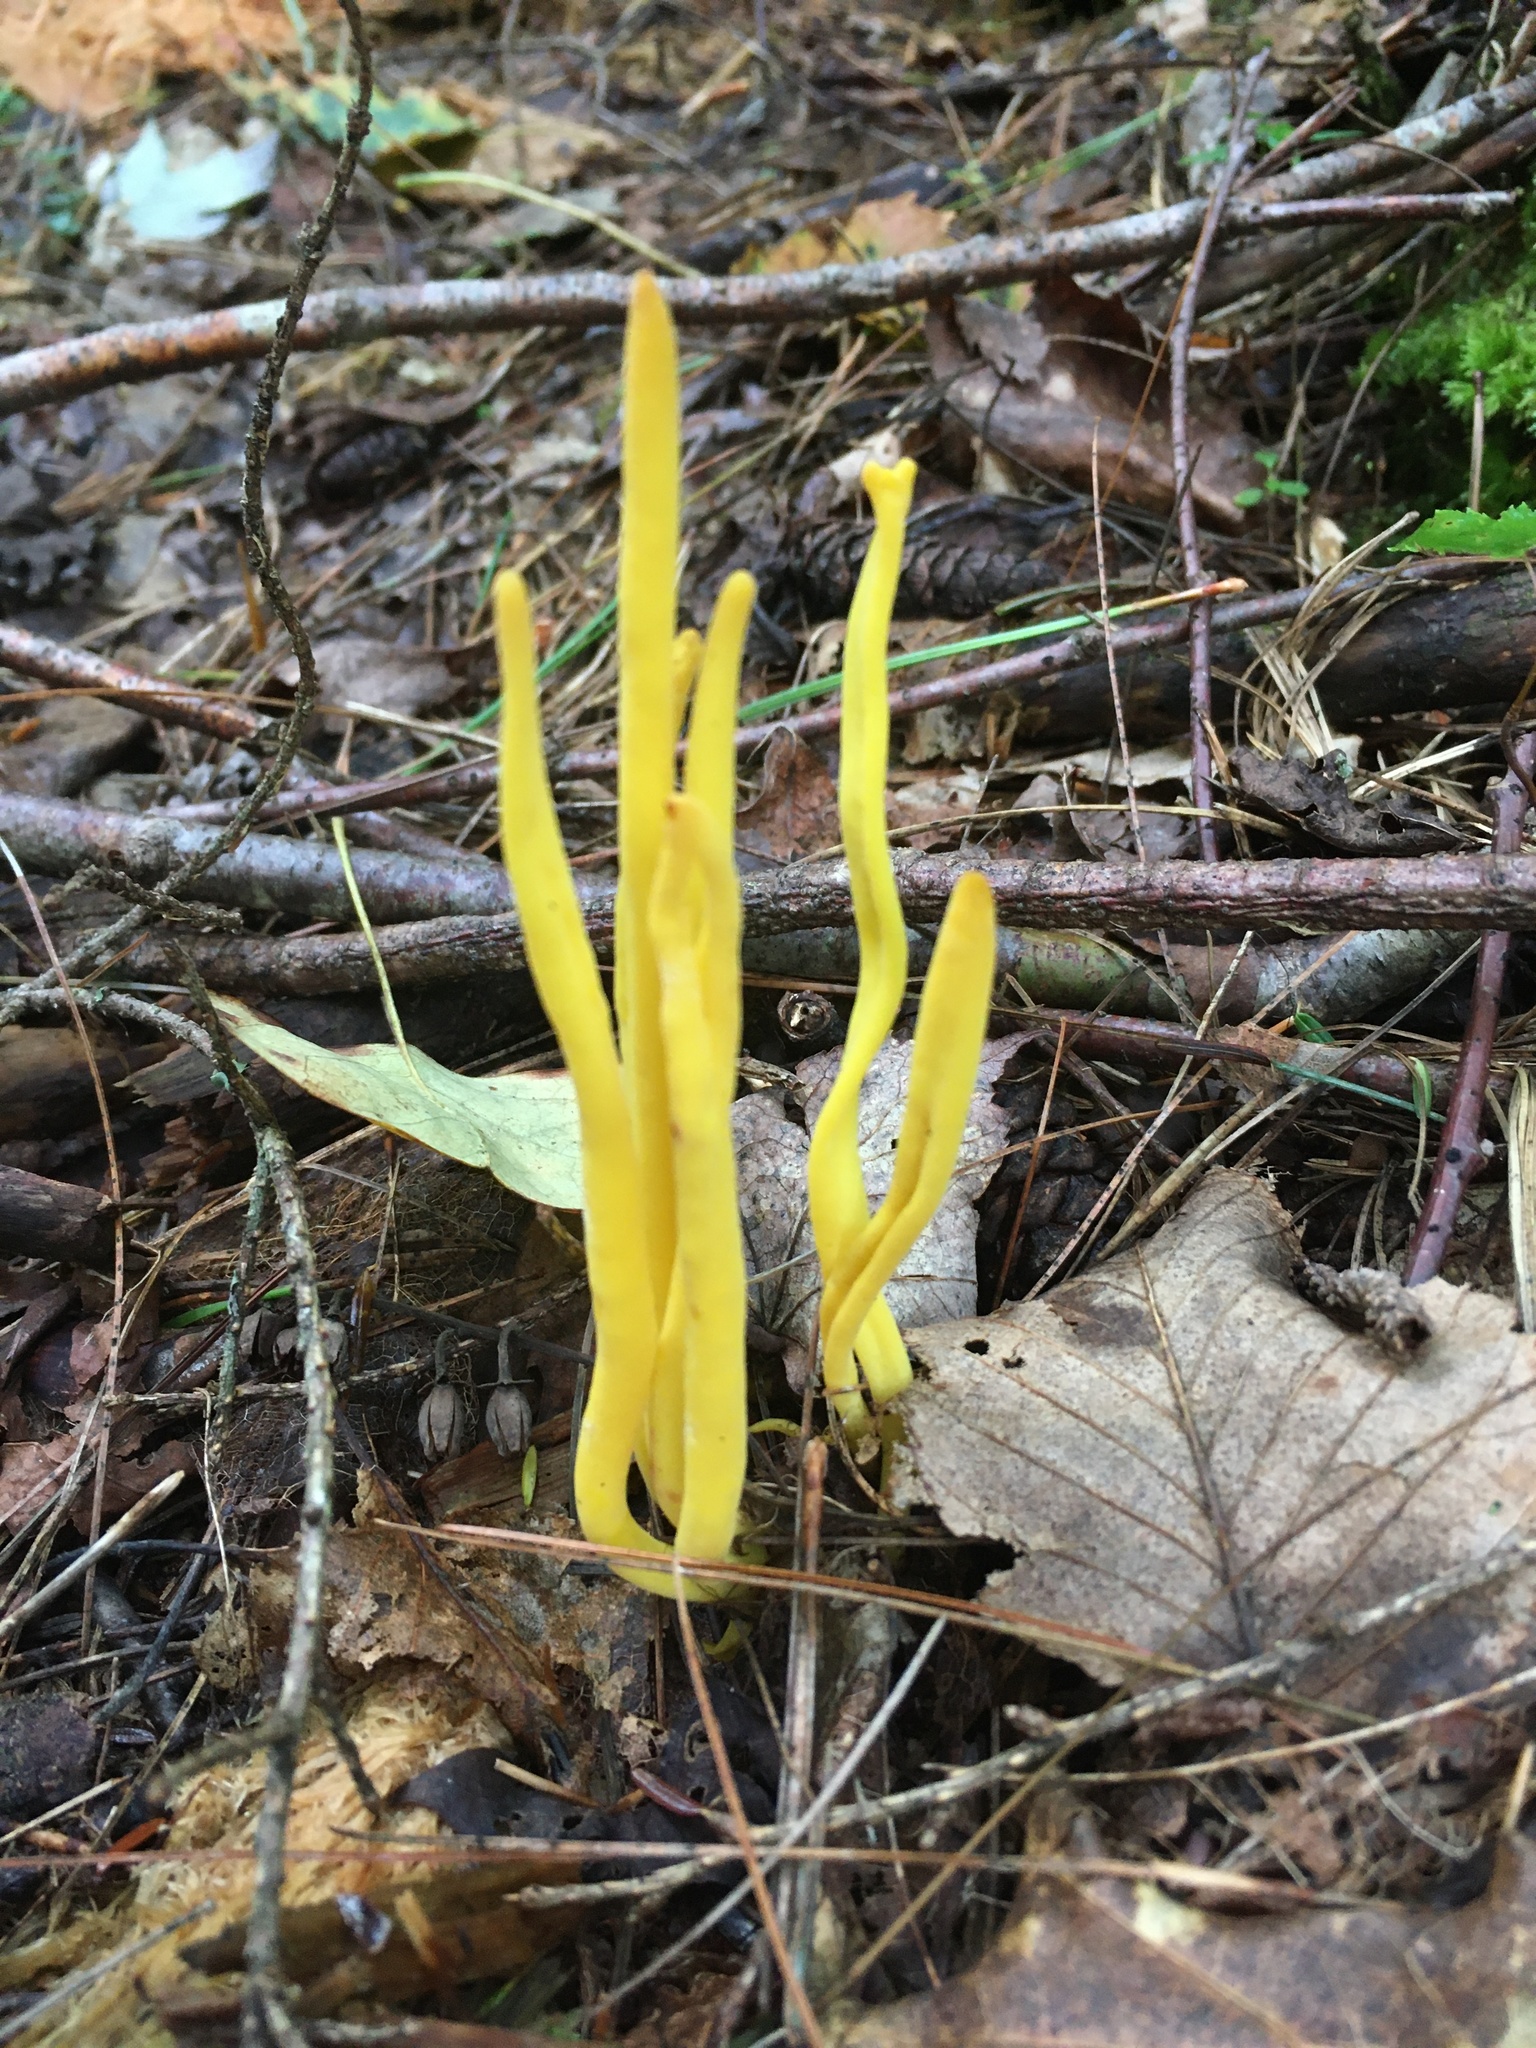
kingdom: Fungi
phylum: Basidiomycota
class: Agaricomycetes
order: Agaricales
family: Clavariaceae
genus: Clavulinopsis
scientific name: Clavulinopsis fusiformis
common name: Golden spindles
